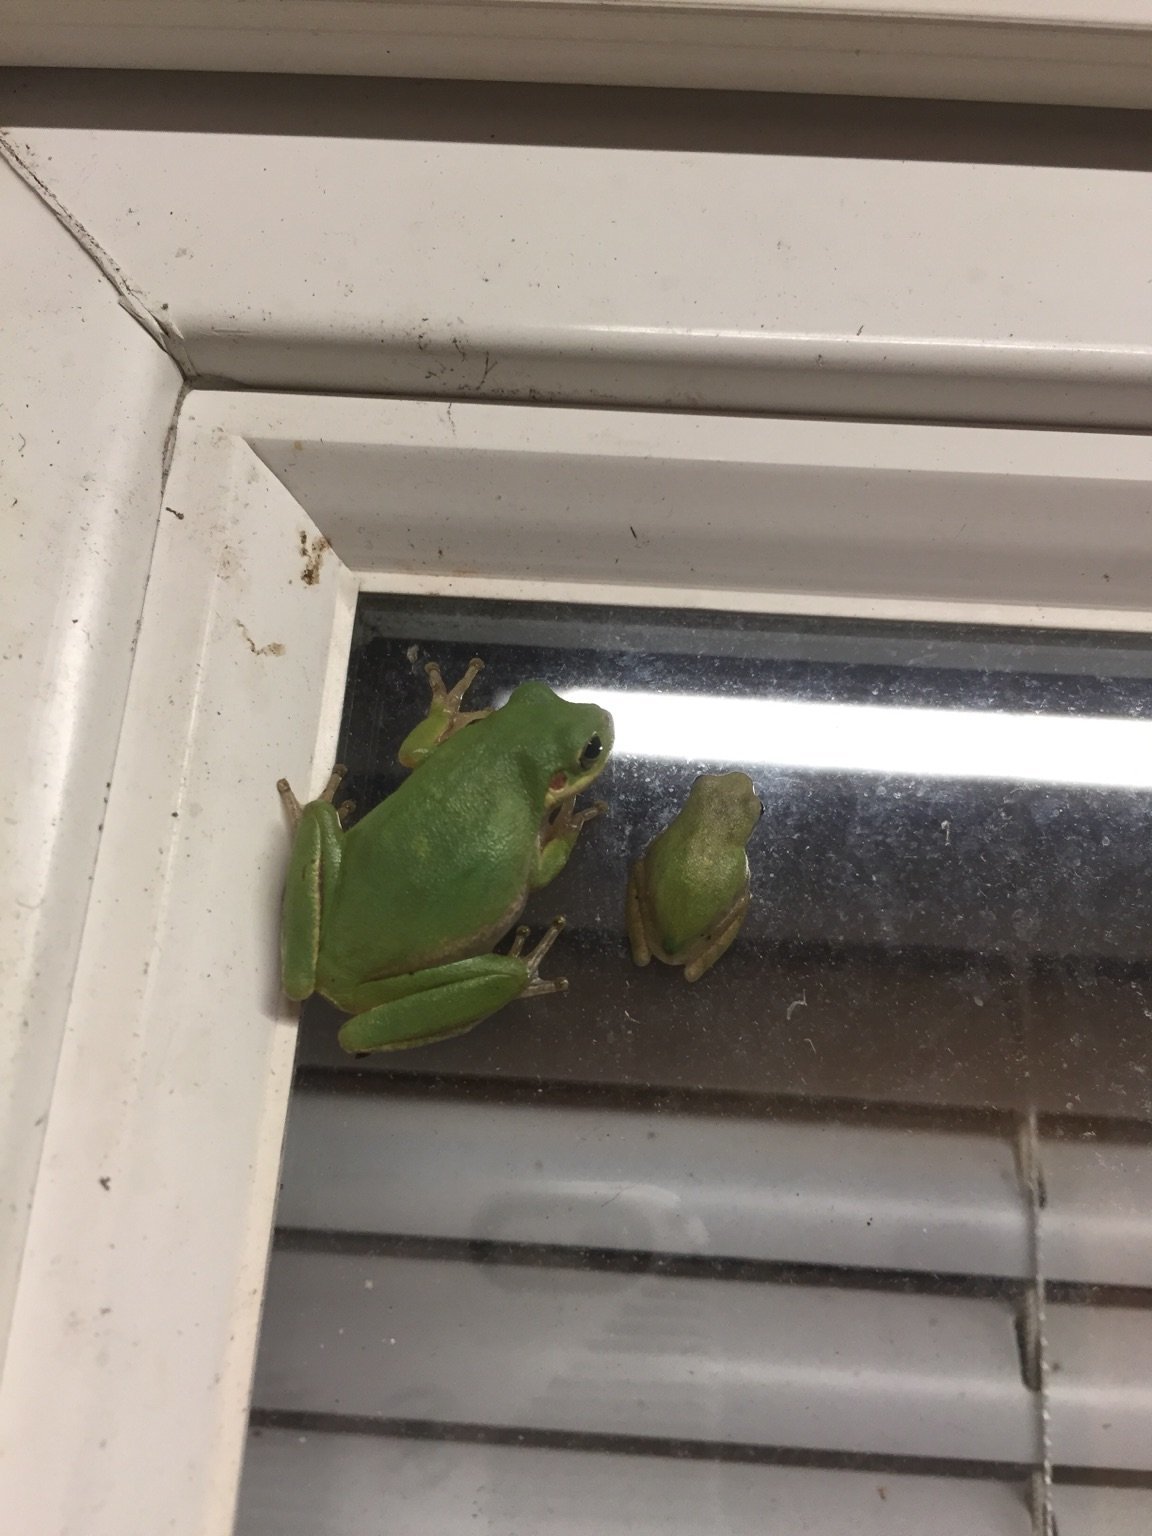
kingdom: Animalia
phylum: Chordata
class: Amphibia
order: Anura
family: Hylidae
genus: Dryophytes
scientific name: Dryophytes squirellus
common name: Squirrel treefrog
